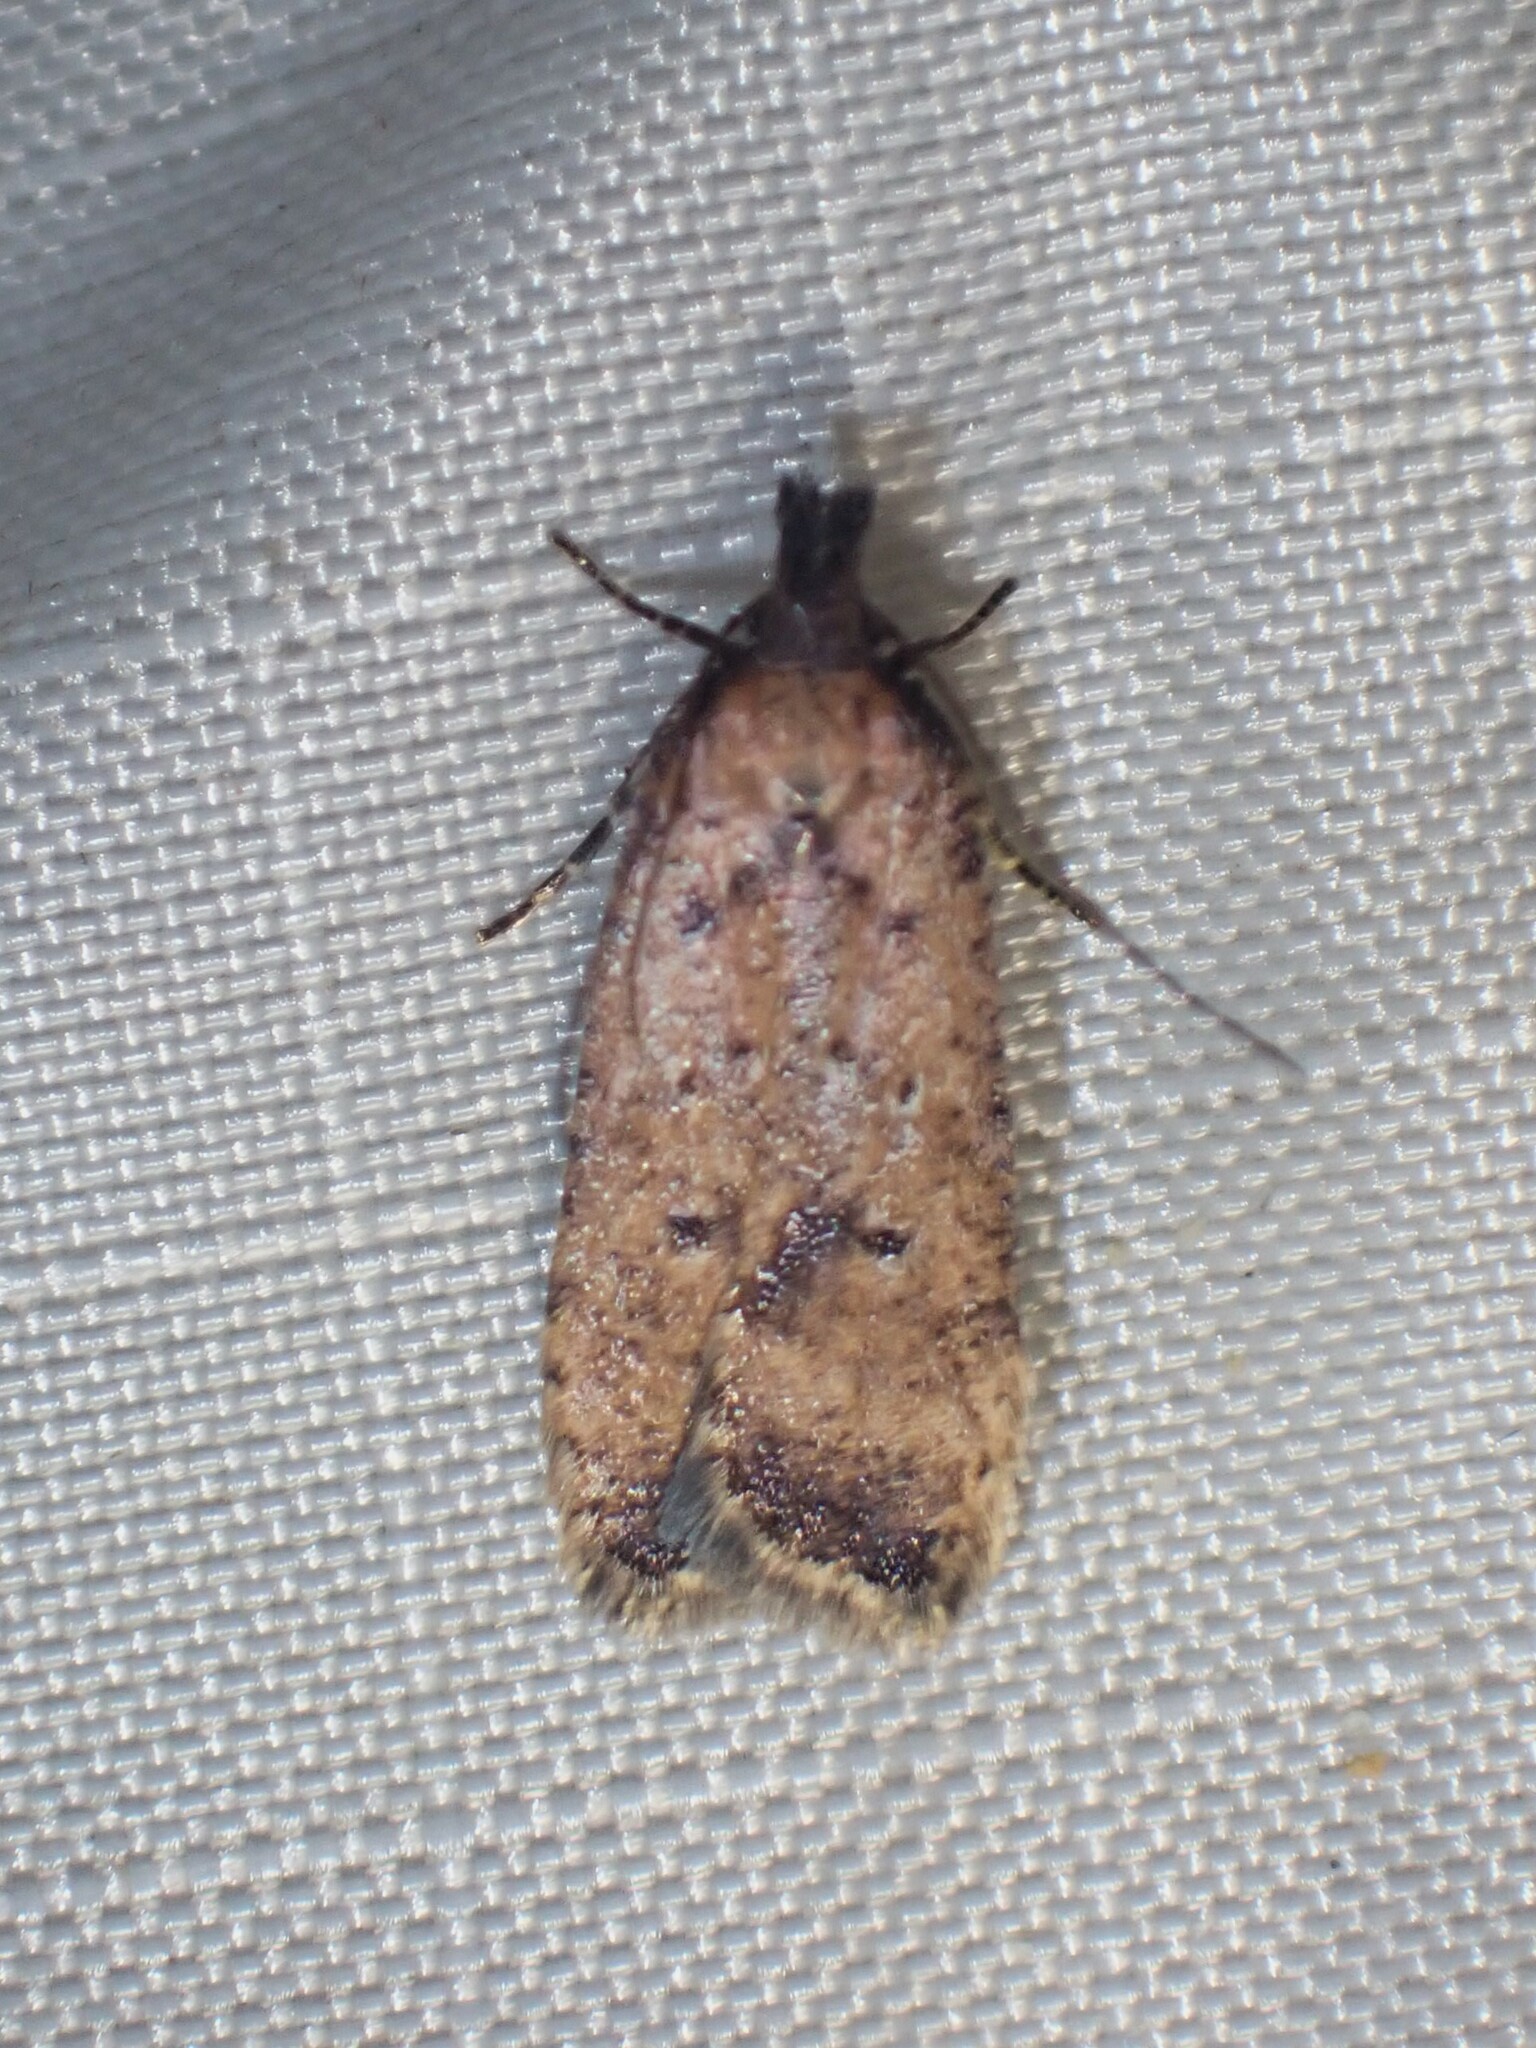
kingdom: Animalia
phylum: Arthropoda
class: Insecta
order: Lepidoptera
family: Gelechiidae
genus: Dichomeris
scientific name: Dichomeris vacciniella
